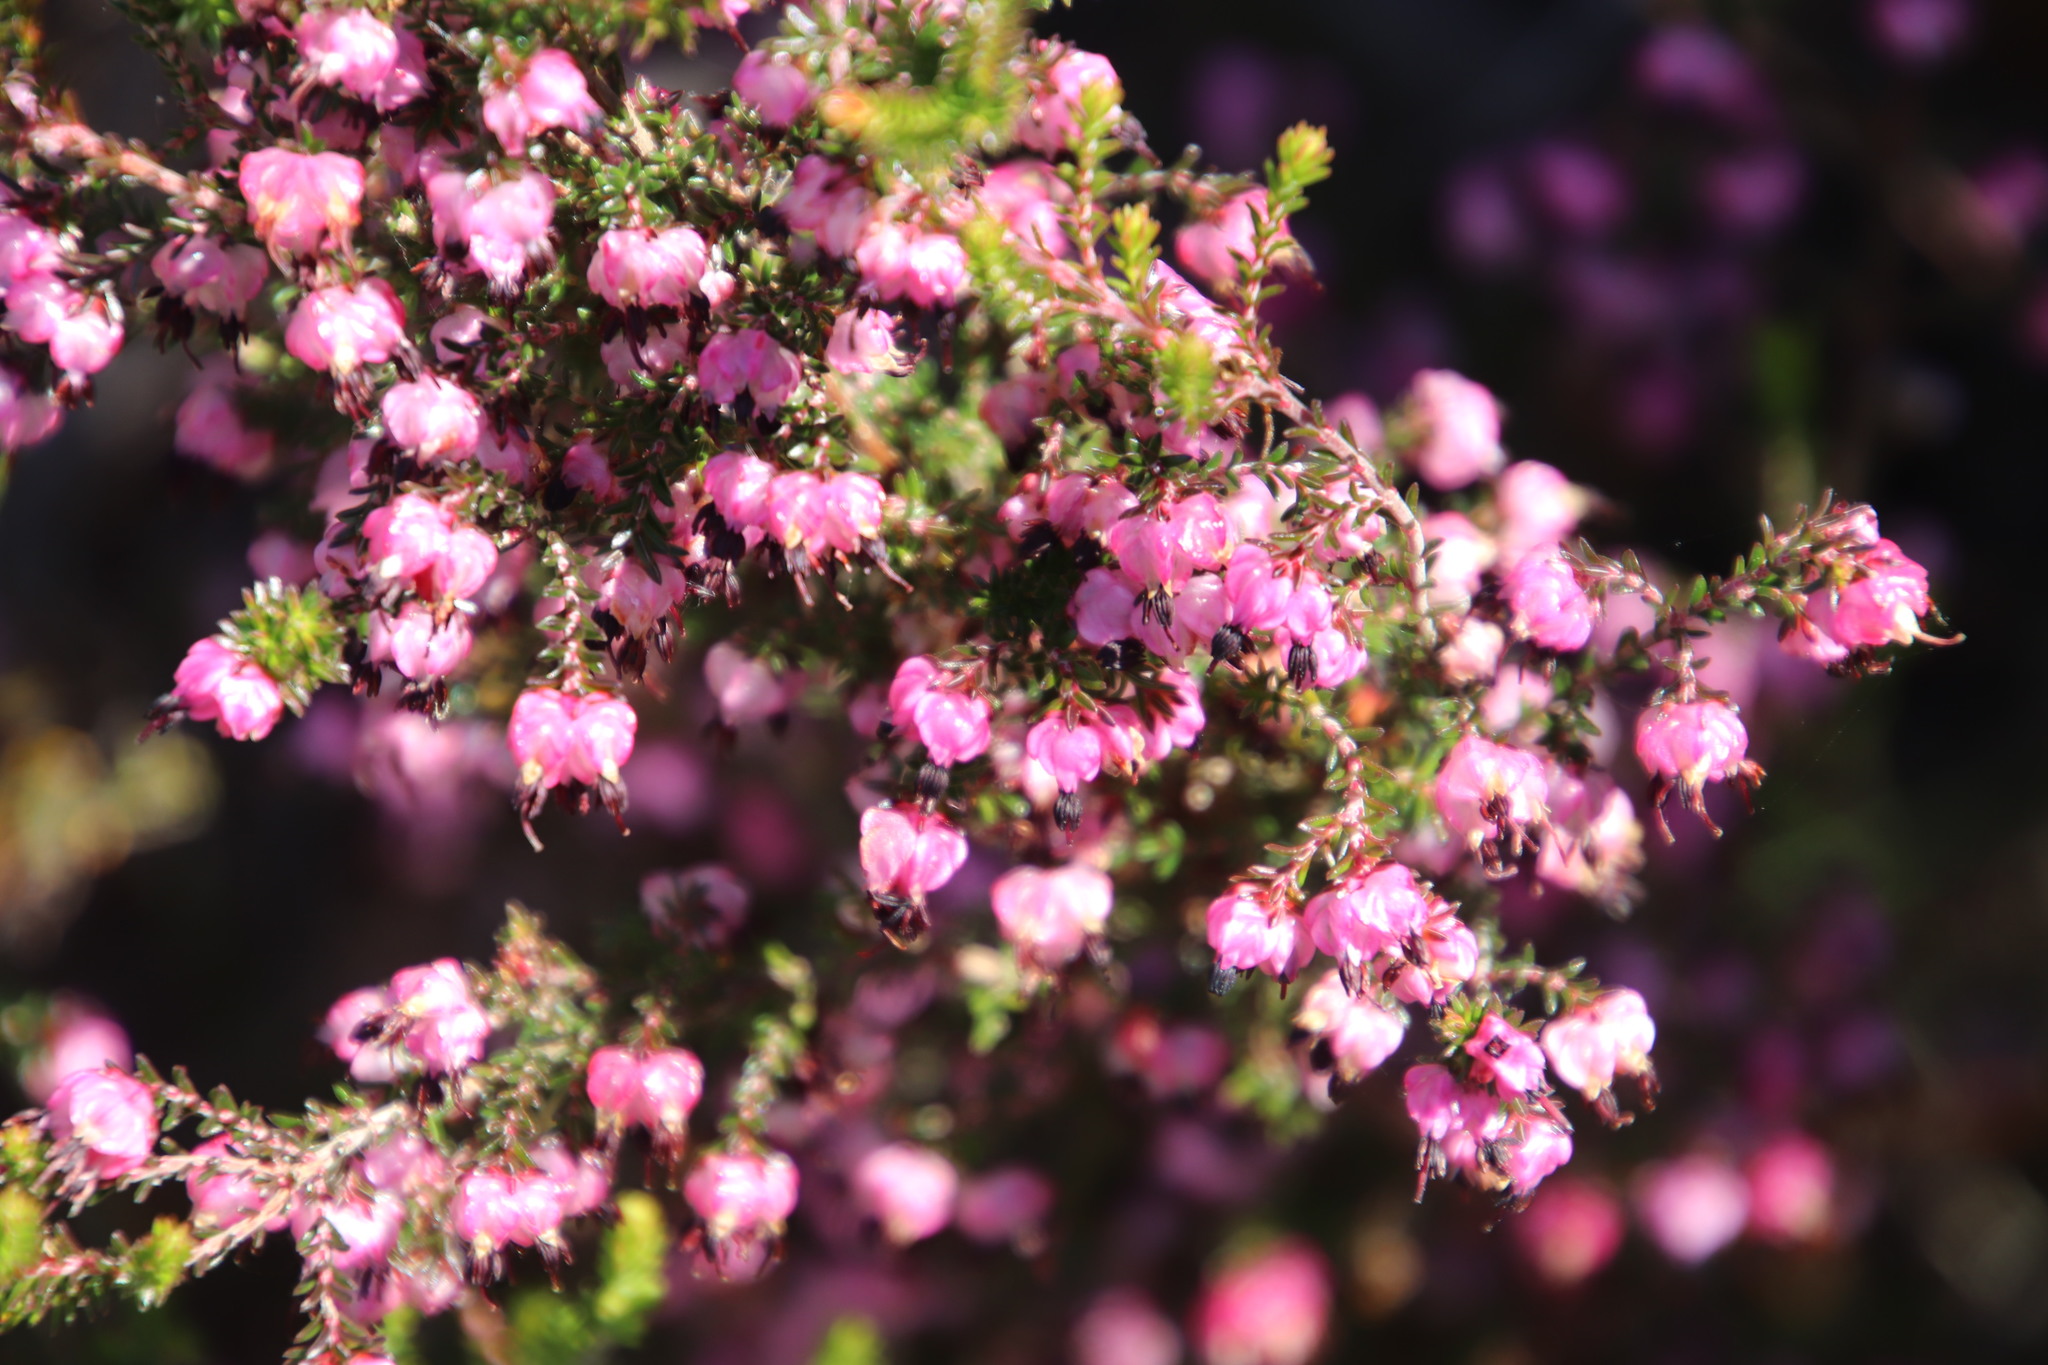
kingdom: Plantae
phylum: Tracheophyta
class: Magnoliopsida
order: Ericales
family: Ericaceae
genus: Erica
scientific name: Erica spumosa
